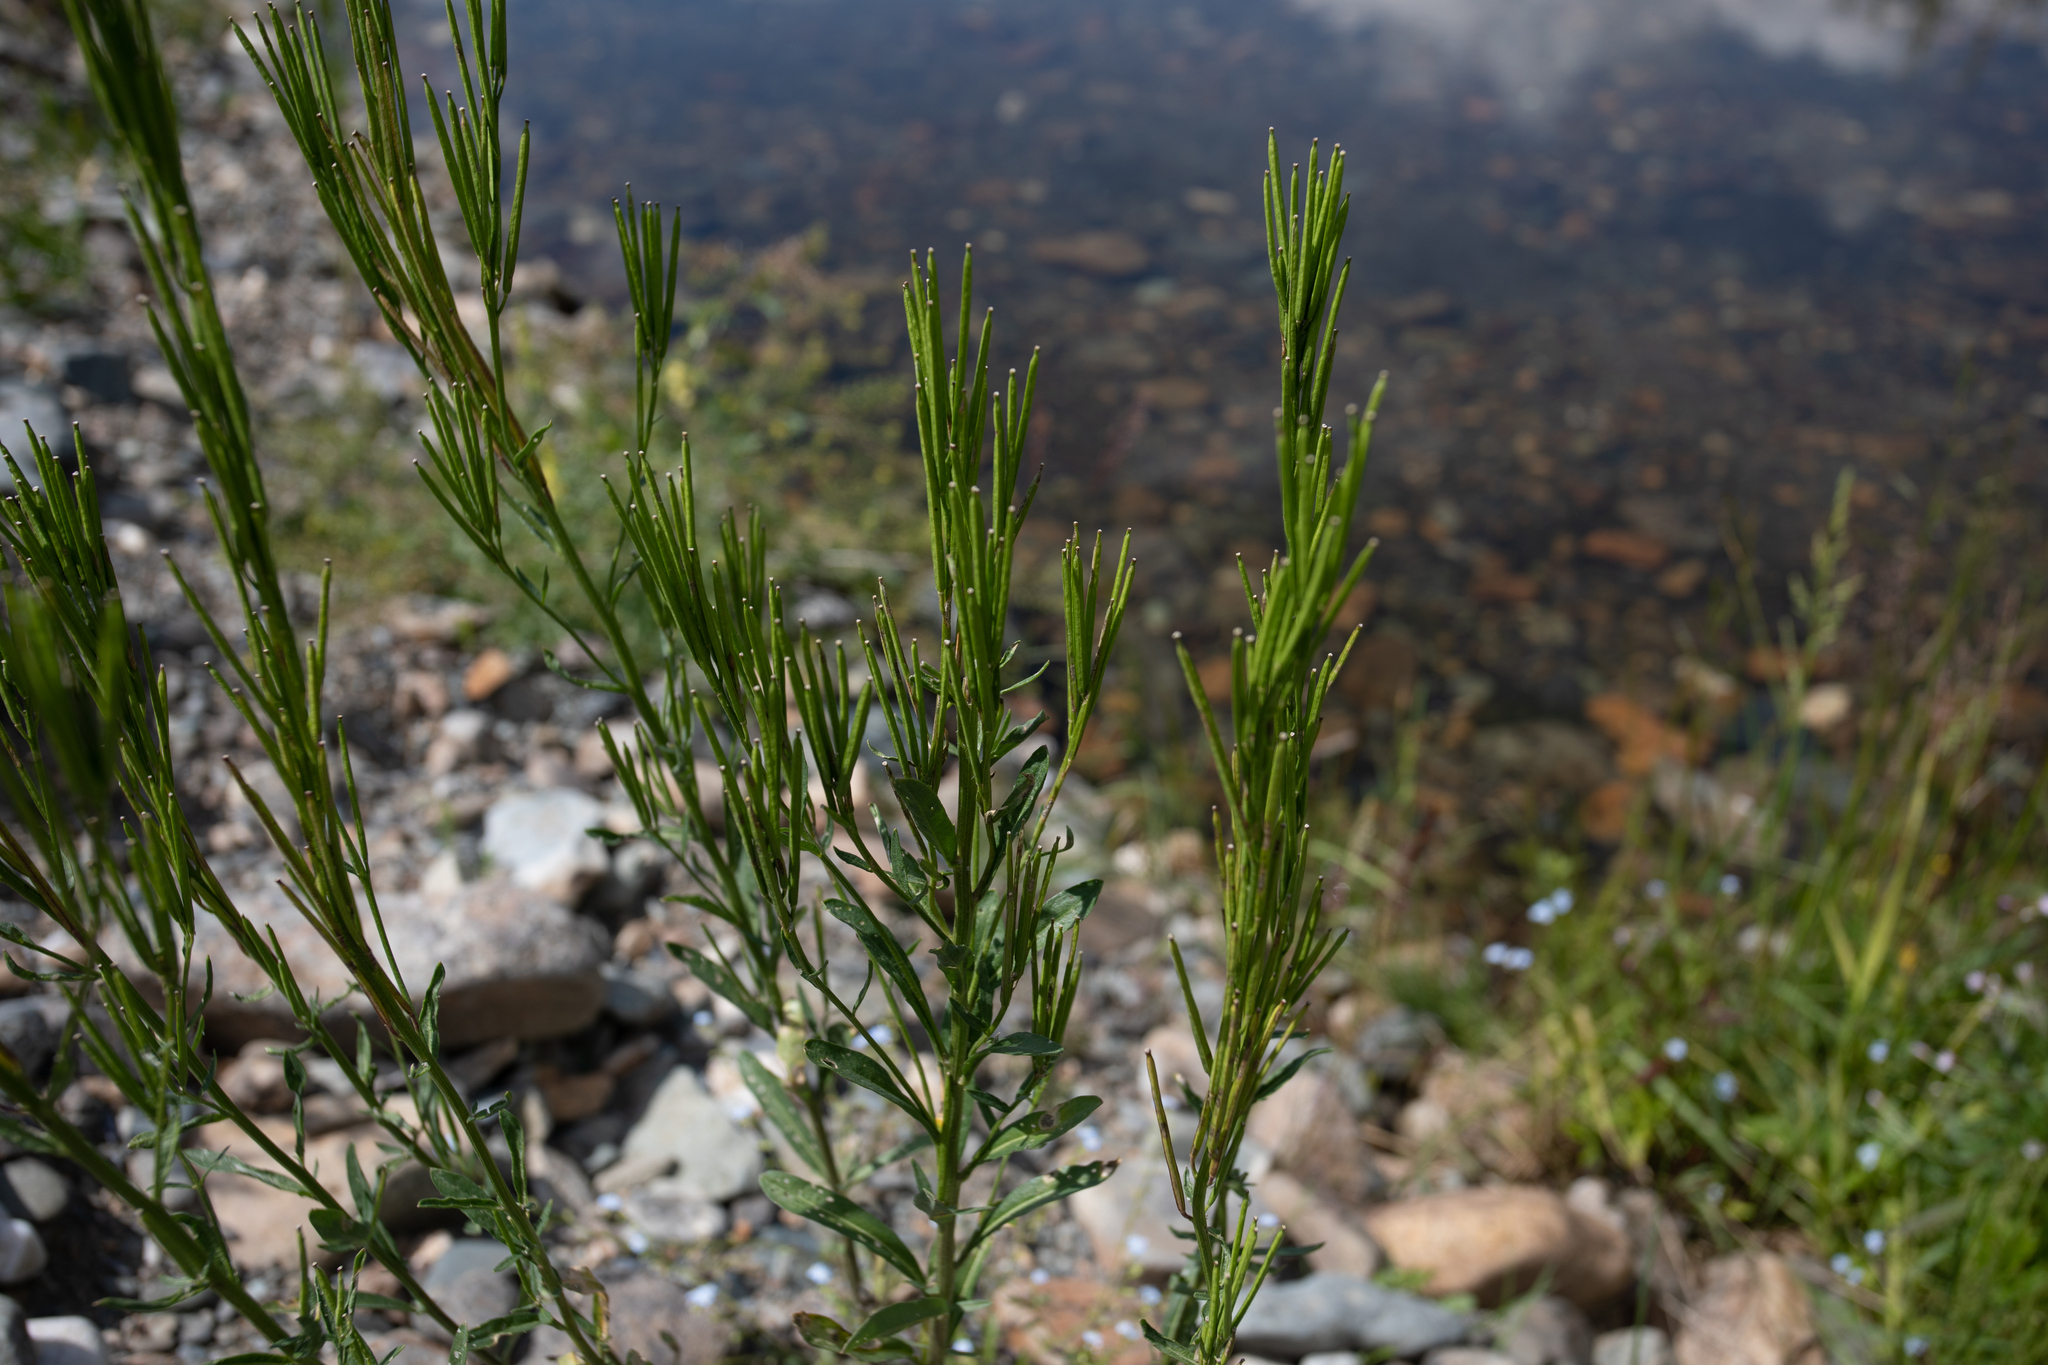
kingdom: Plantae
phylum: Tracheophyta
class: Magnoliopsida
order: Brassicales
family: Brassicaceae
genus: Erysimum
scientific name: Erysimum hieraciifolium
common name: European wallflower
